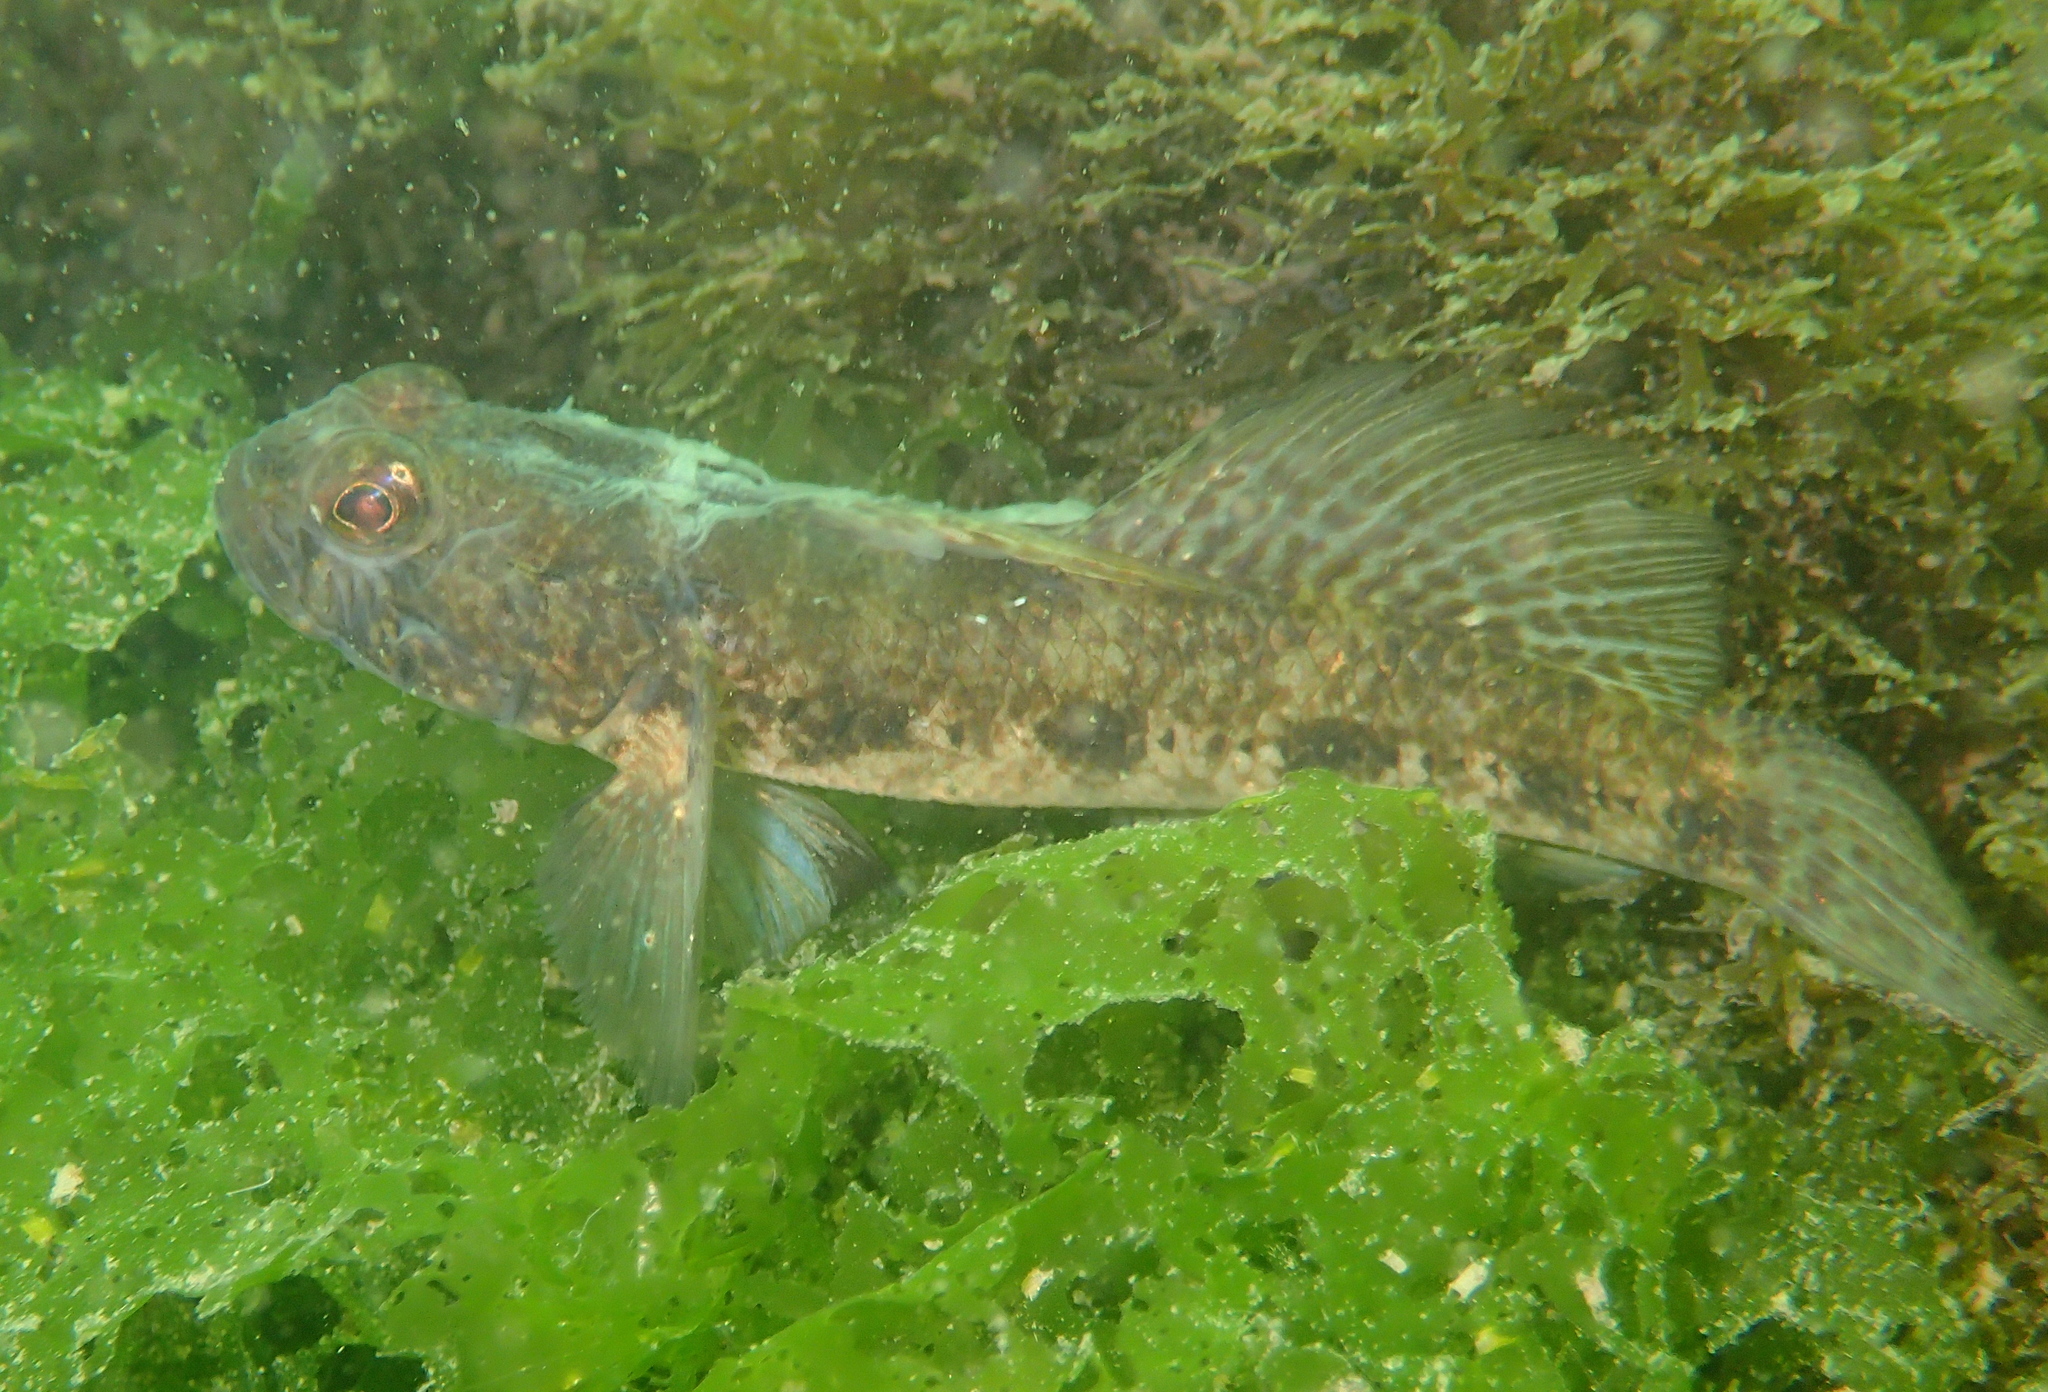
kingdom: Animalia
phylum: Chordata
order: Perciformes
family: Gobiidae
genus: Gobius
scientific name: Gobius niger
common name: Black goby
